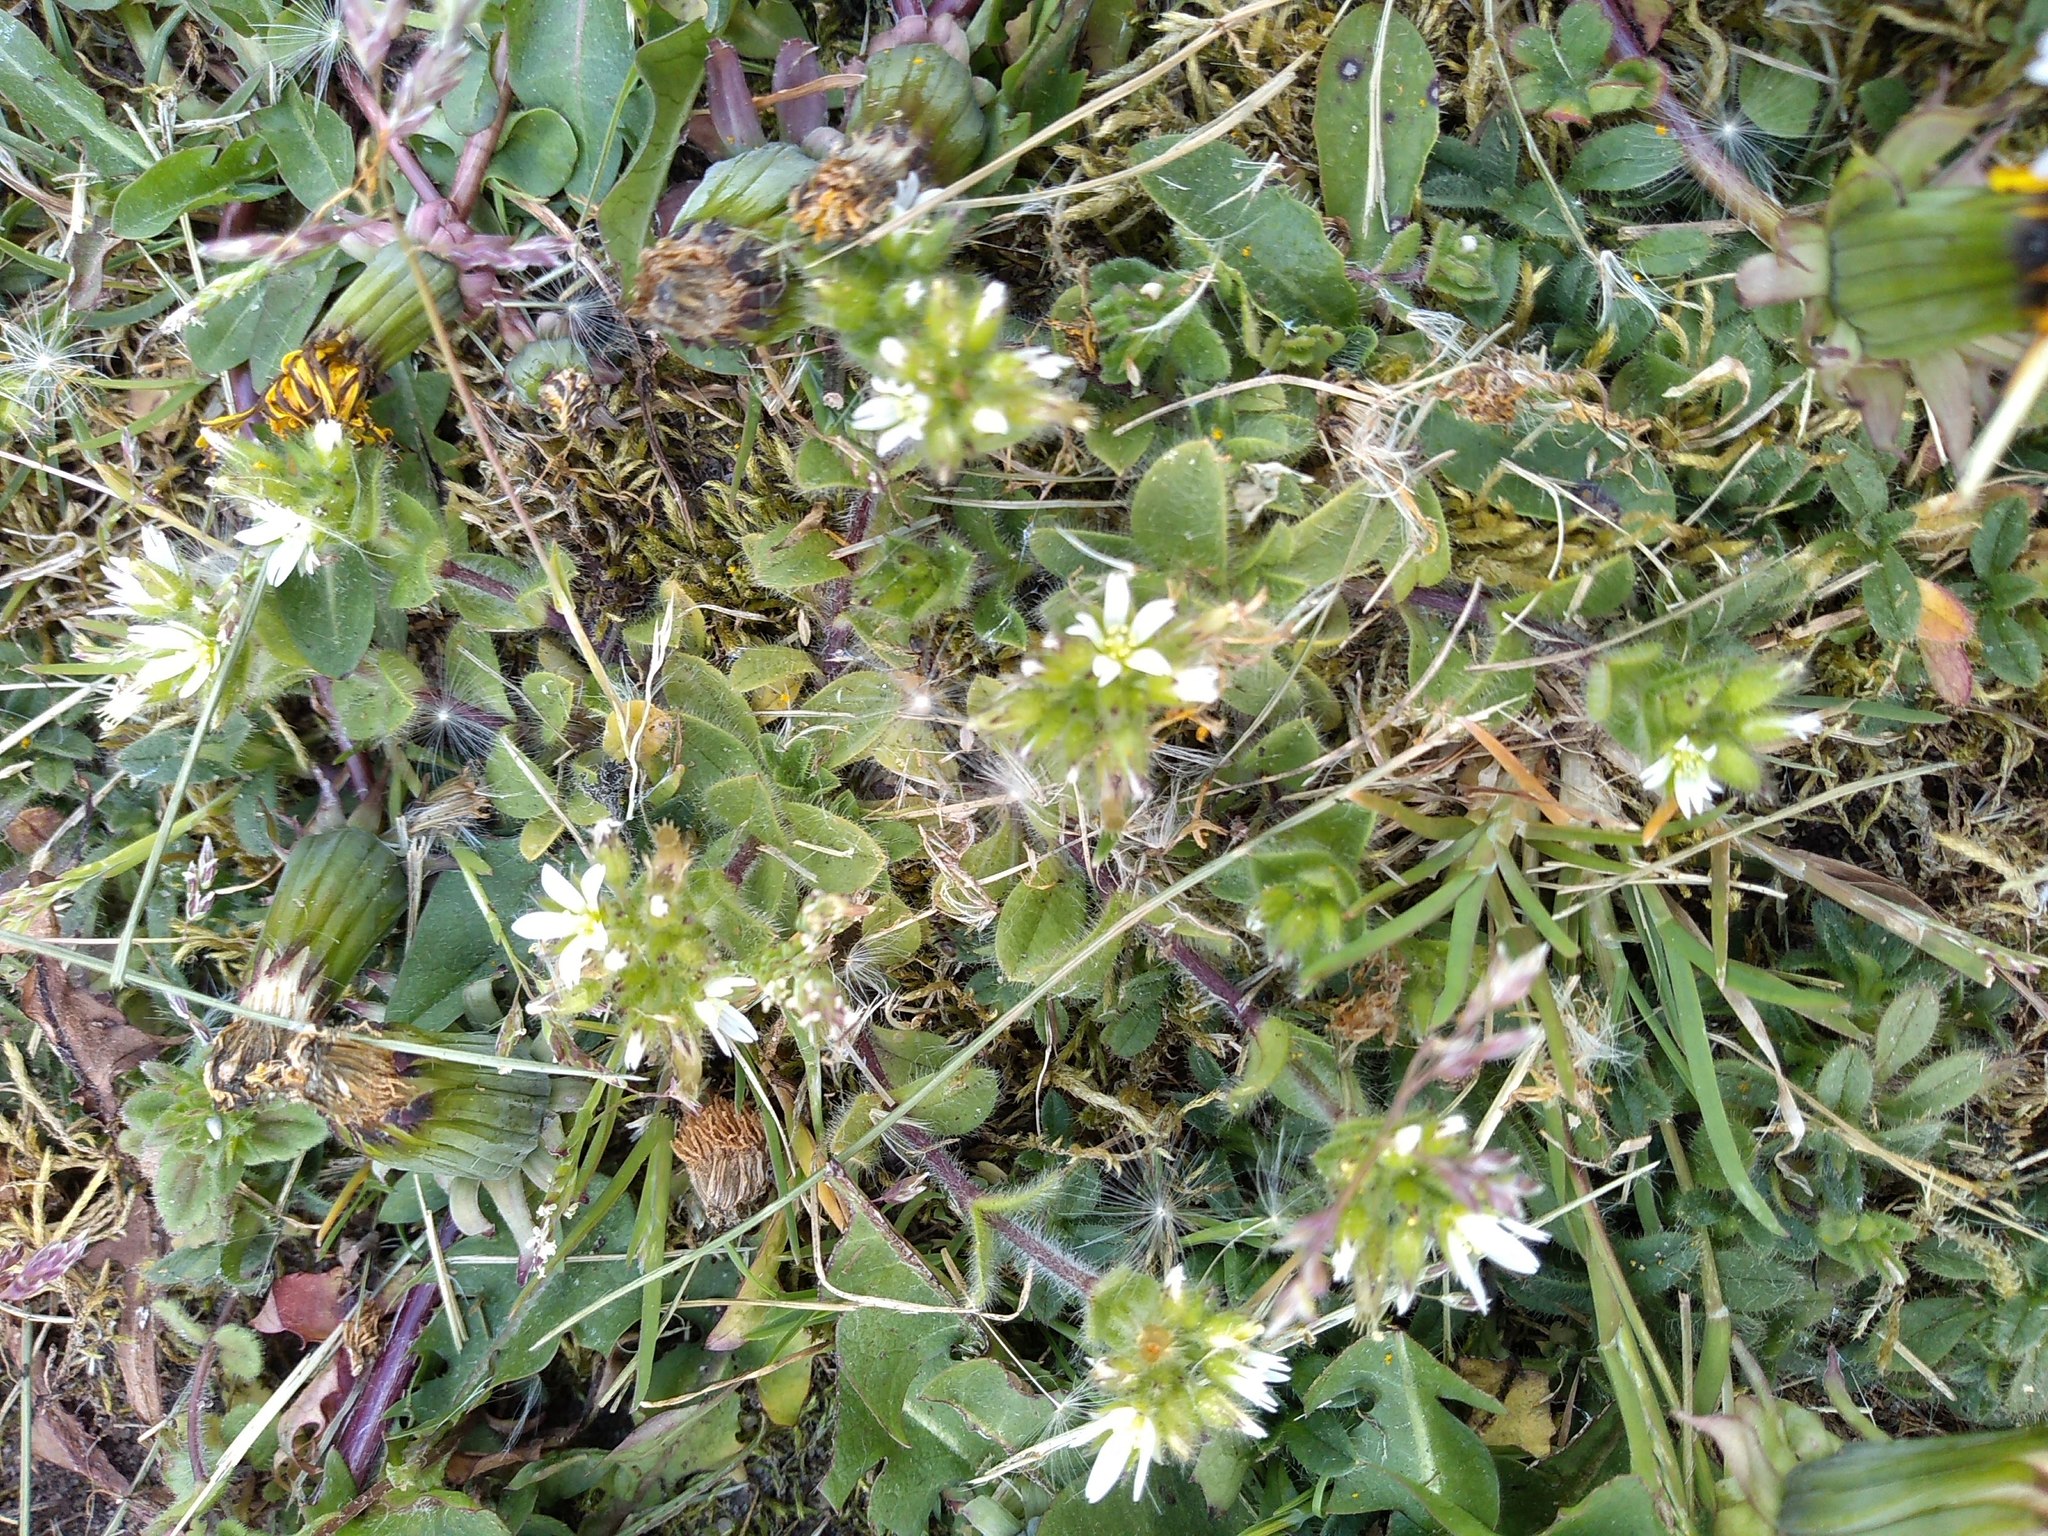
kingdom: Plantae
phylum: Tracheophyta
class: Magnoliopsida
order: Caryophyllales
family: Caryophyllaceae
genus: Cerastium
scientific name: Cerastium glomeratum
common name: Sticky chickweed
